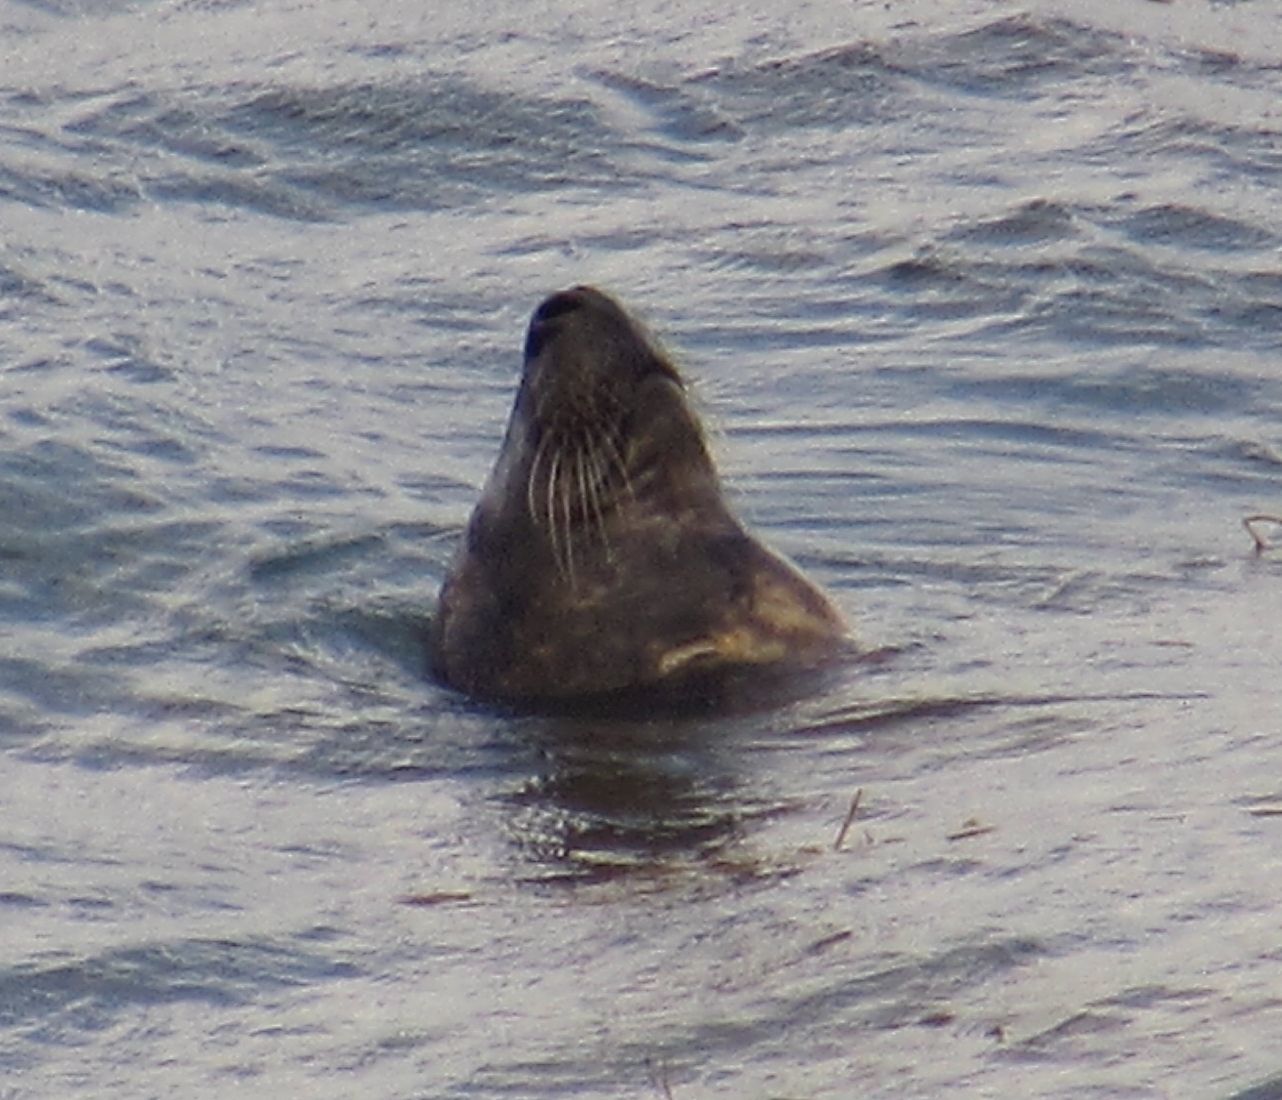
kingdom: Animalia
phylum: Chordata
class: Mammalia
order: Carnivora
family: Phocidae
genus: Halichoerus
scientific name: Halichoerus grypus
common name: Grey seal
